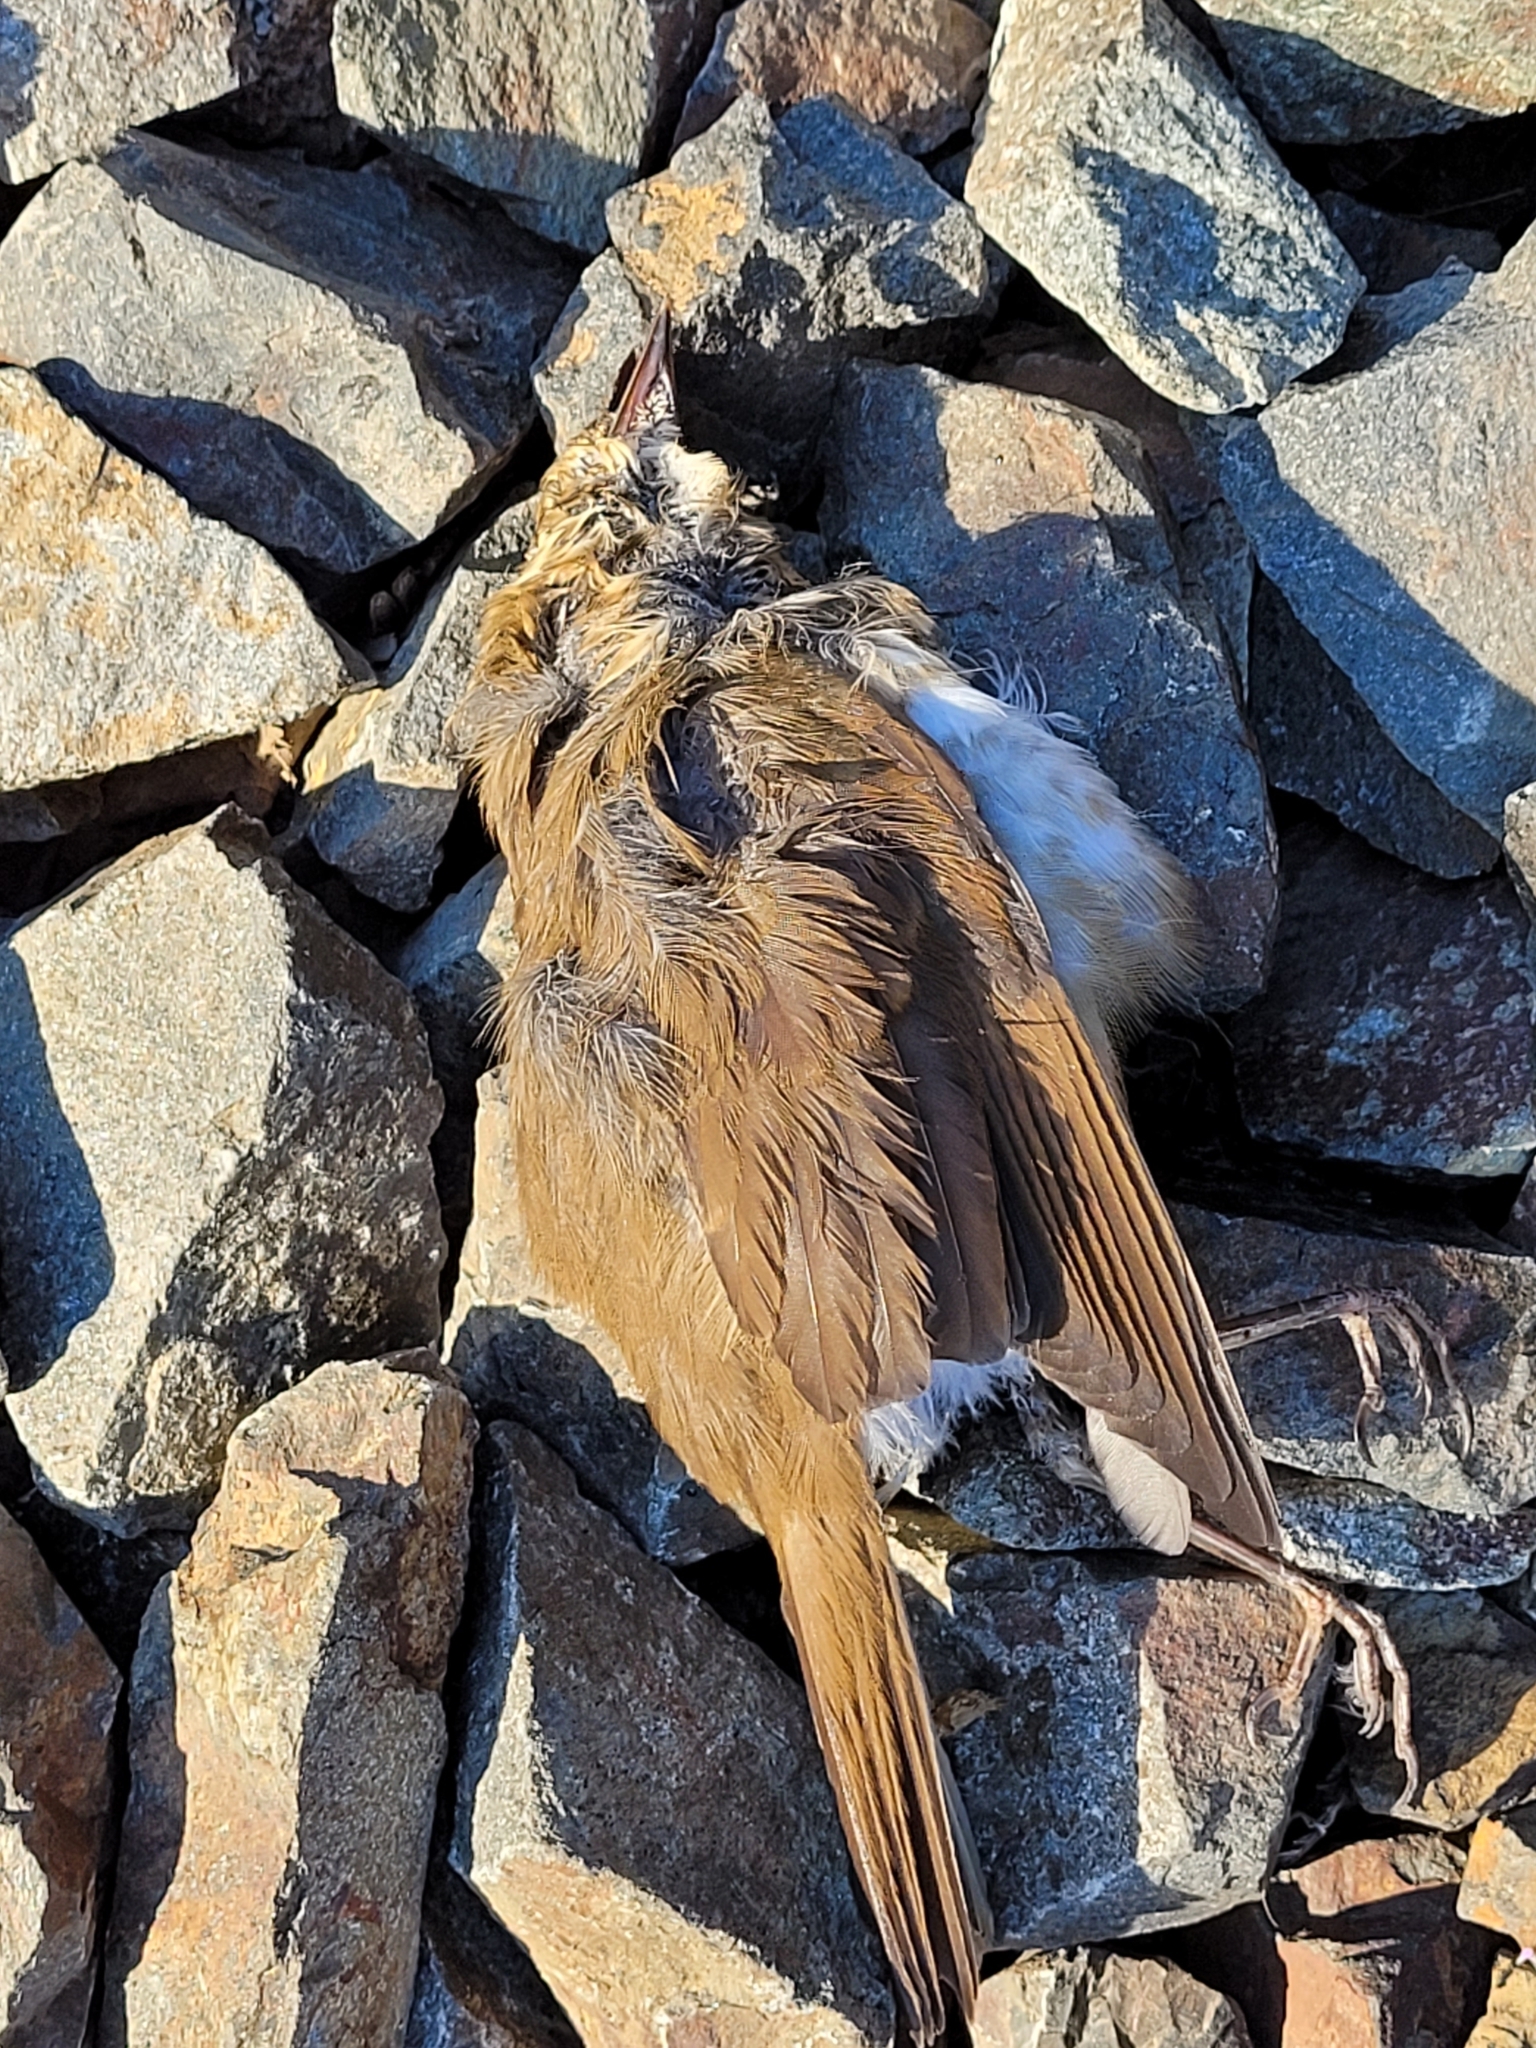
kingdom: Animalia
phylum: Chordata
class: Aves
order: Passeriformes
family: Troglodytidae
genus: Troglodytes
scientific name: Troglodytes aedon
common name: House wren
